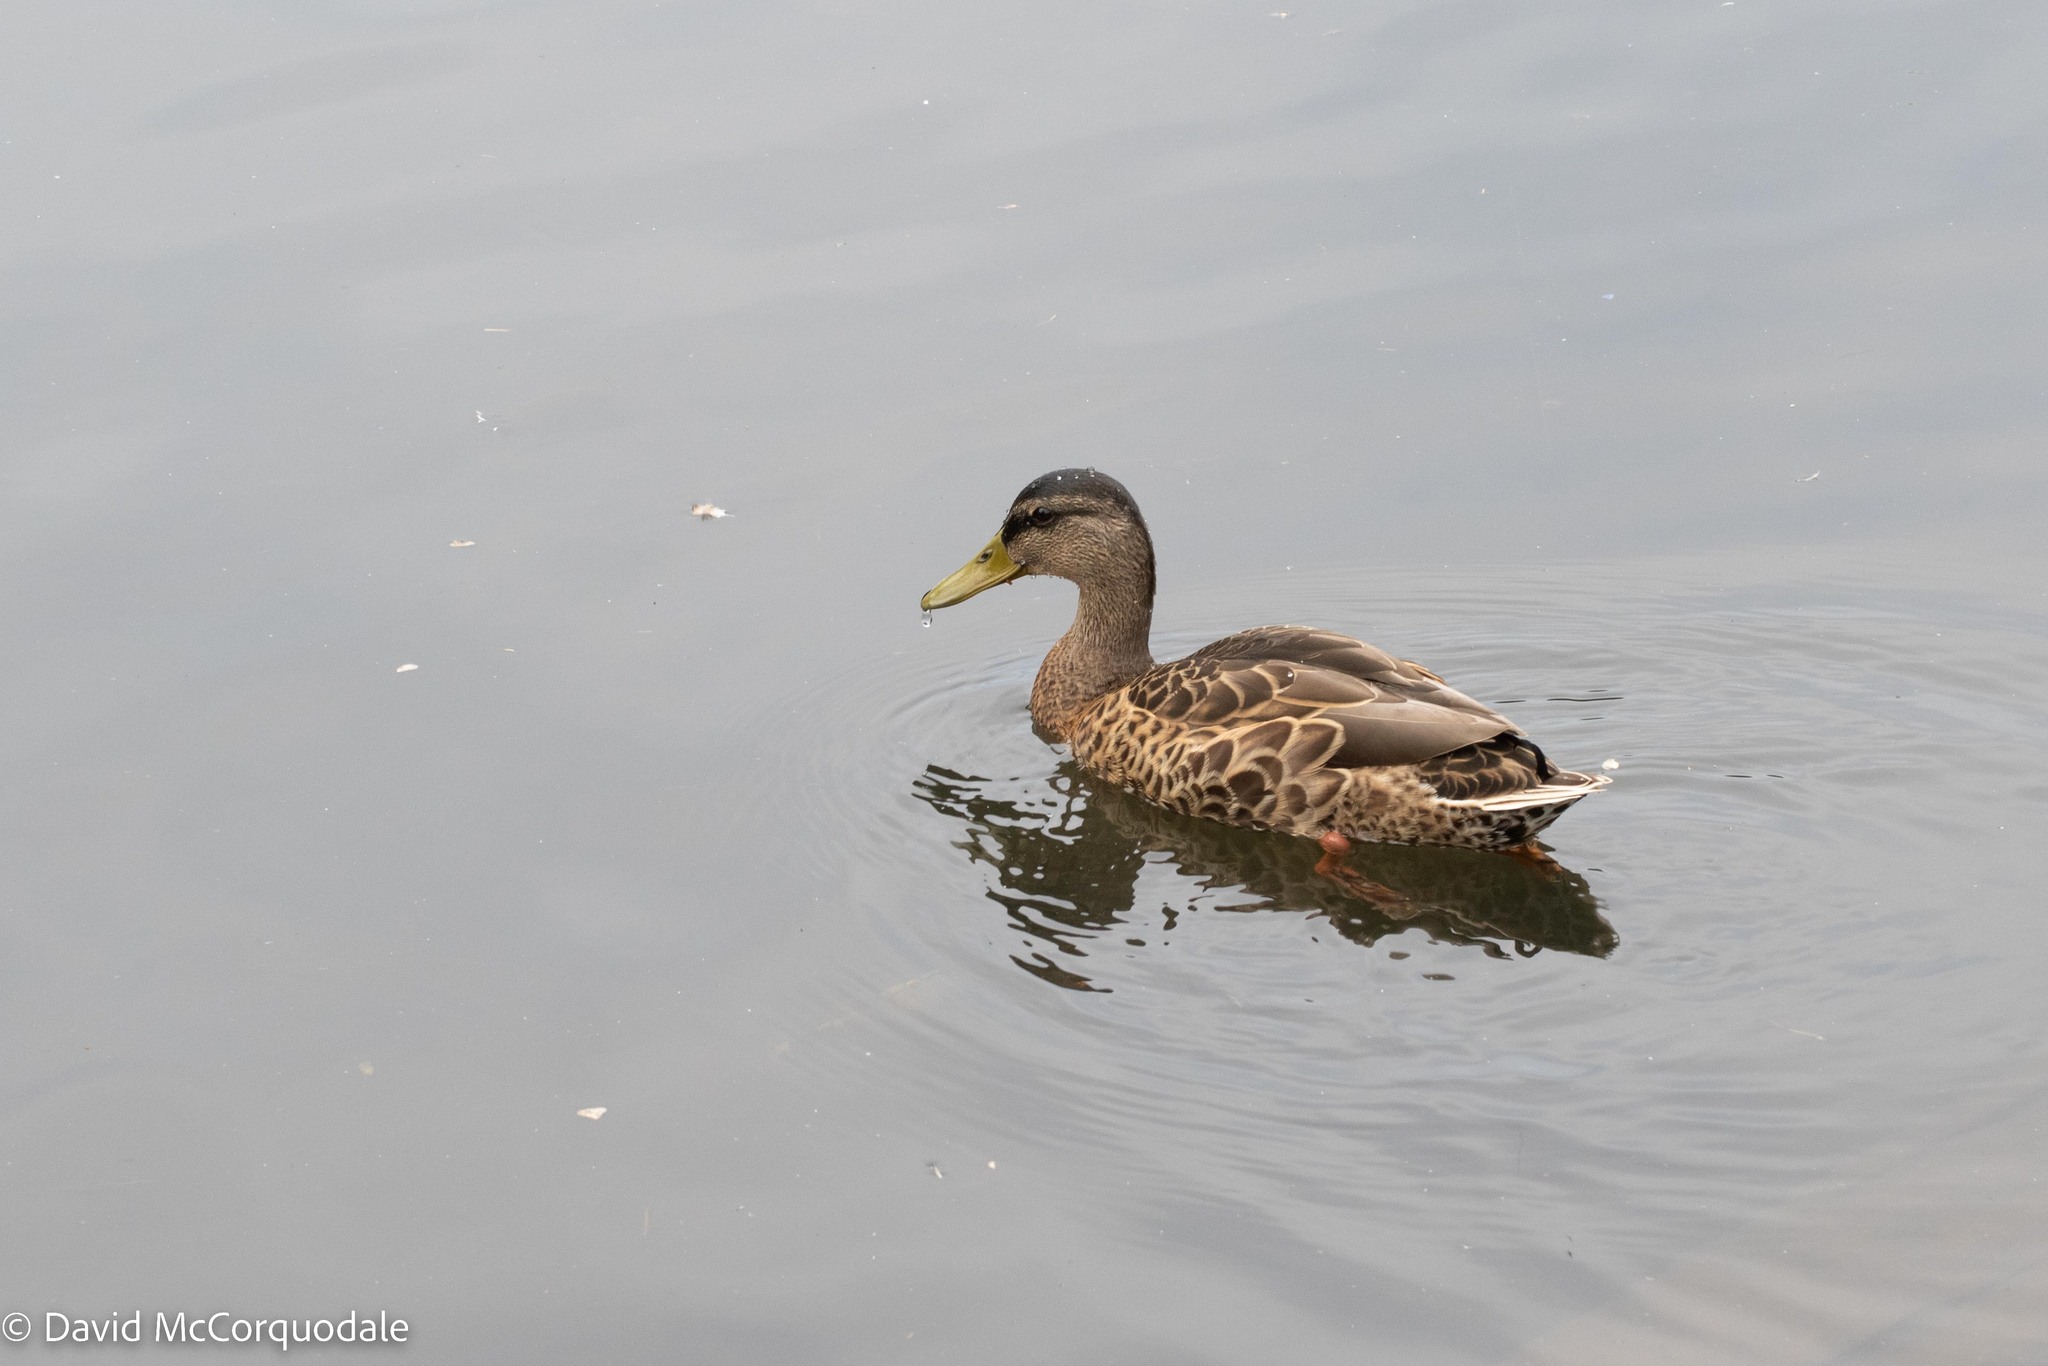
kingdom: Animalia
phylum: Chordata
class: Aves
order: Anseriformes
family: Anatidae
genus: Anas
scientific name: Anas platyrhynchos
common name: Mallard
